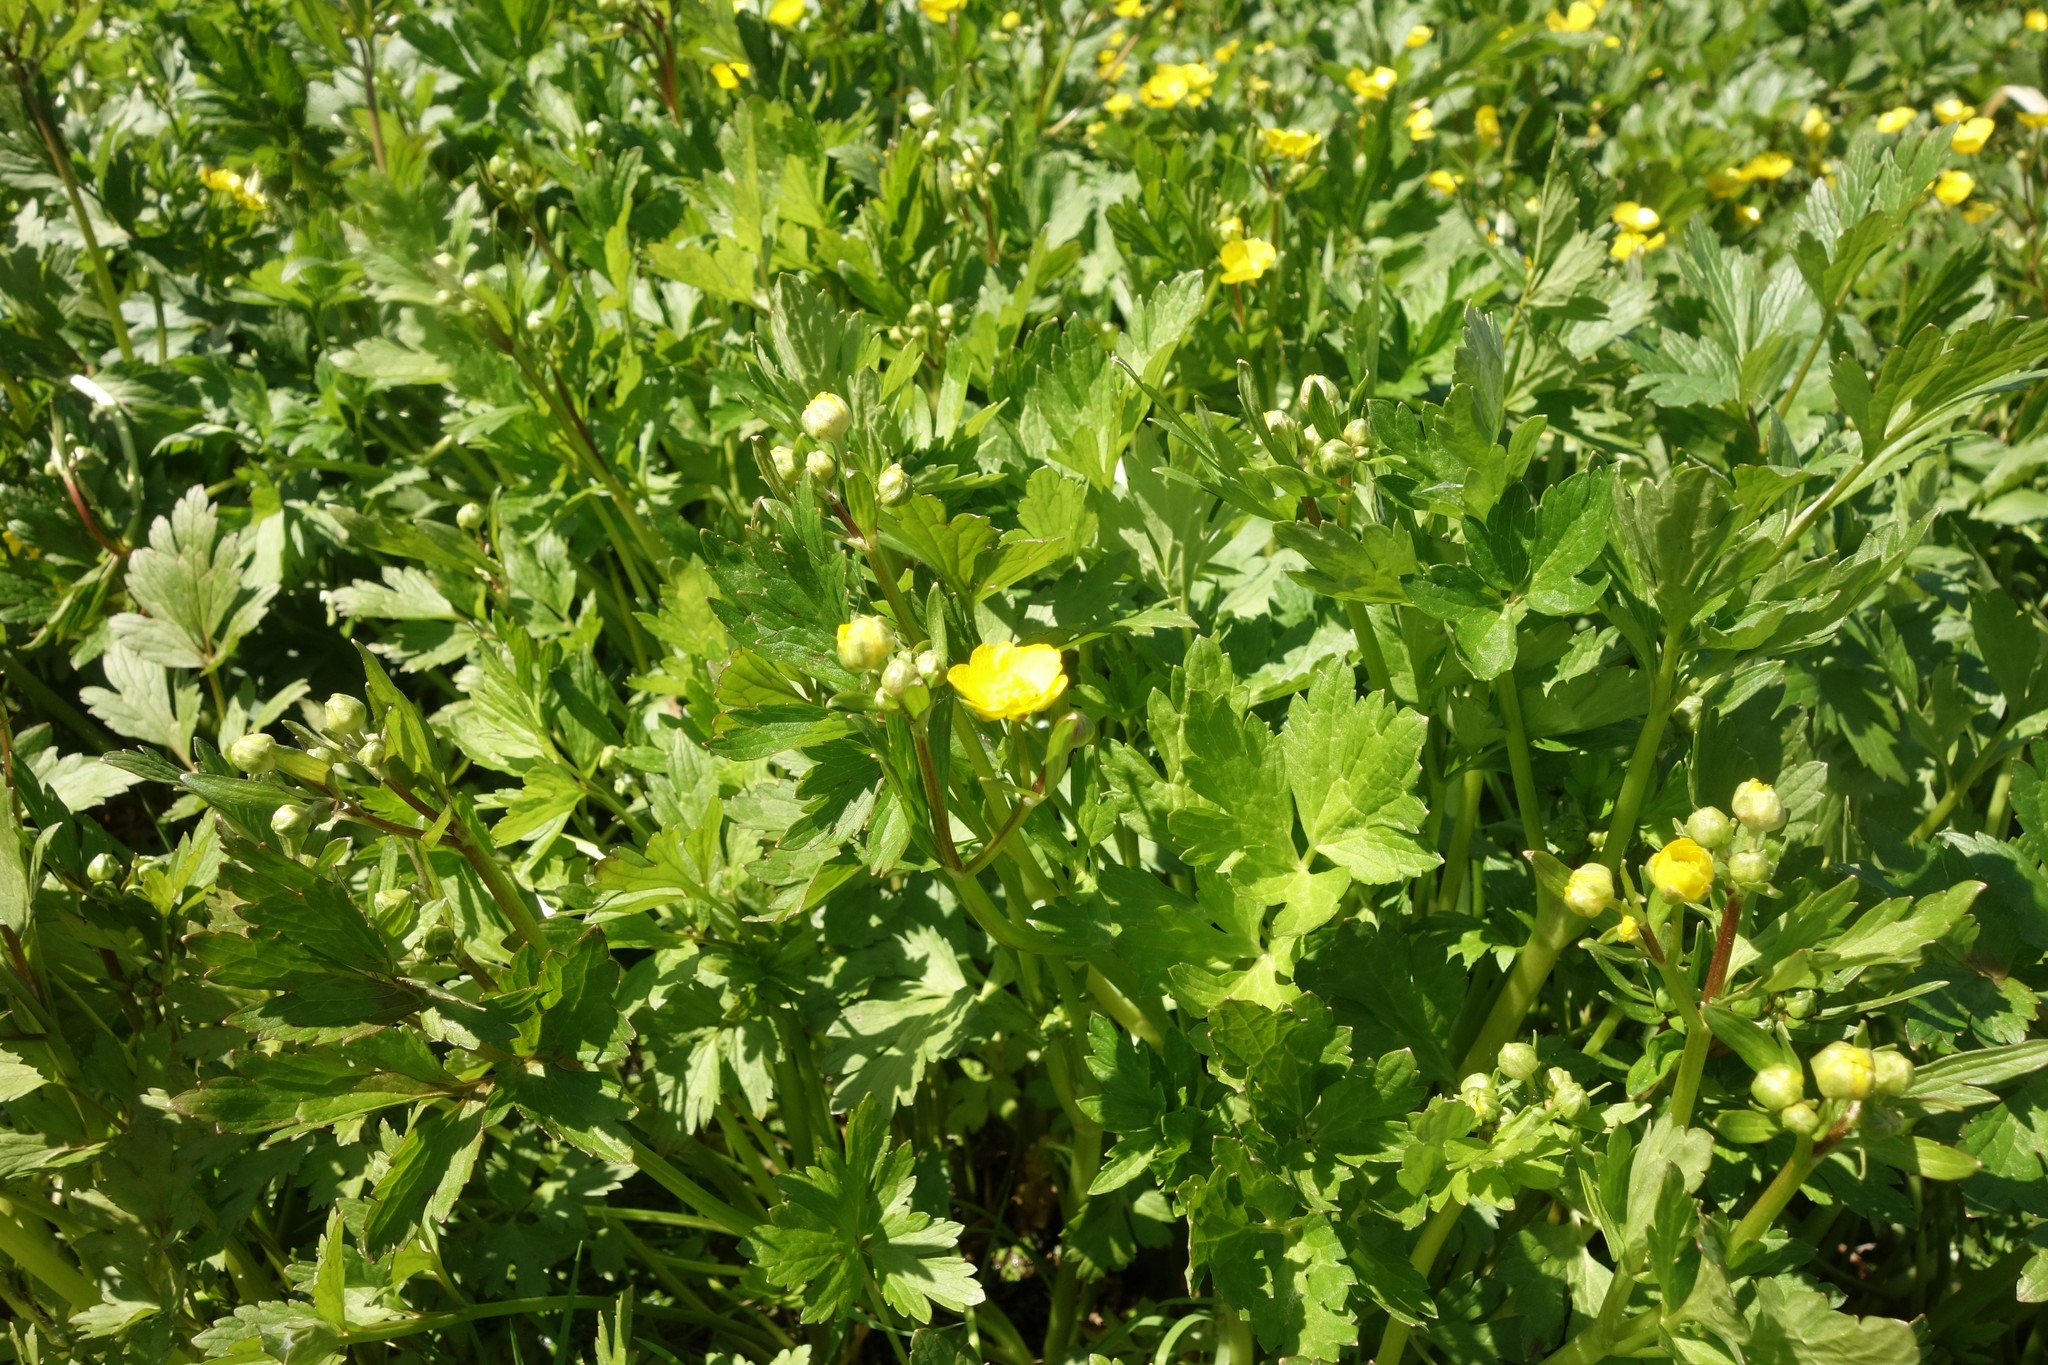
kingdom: Plantae
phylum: Tracheophyta
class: Magnoliopsida
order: Ranunculales
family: Ranunculaceae
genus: Ranunculus
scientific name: Ranunculus repens
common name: Creeping buttercup
